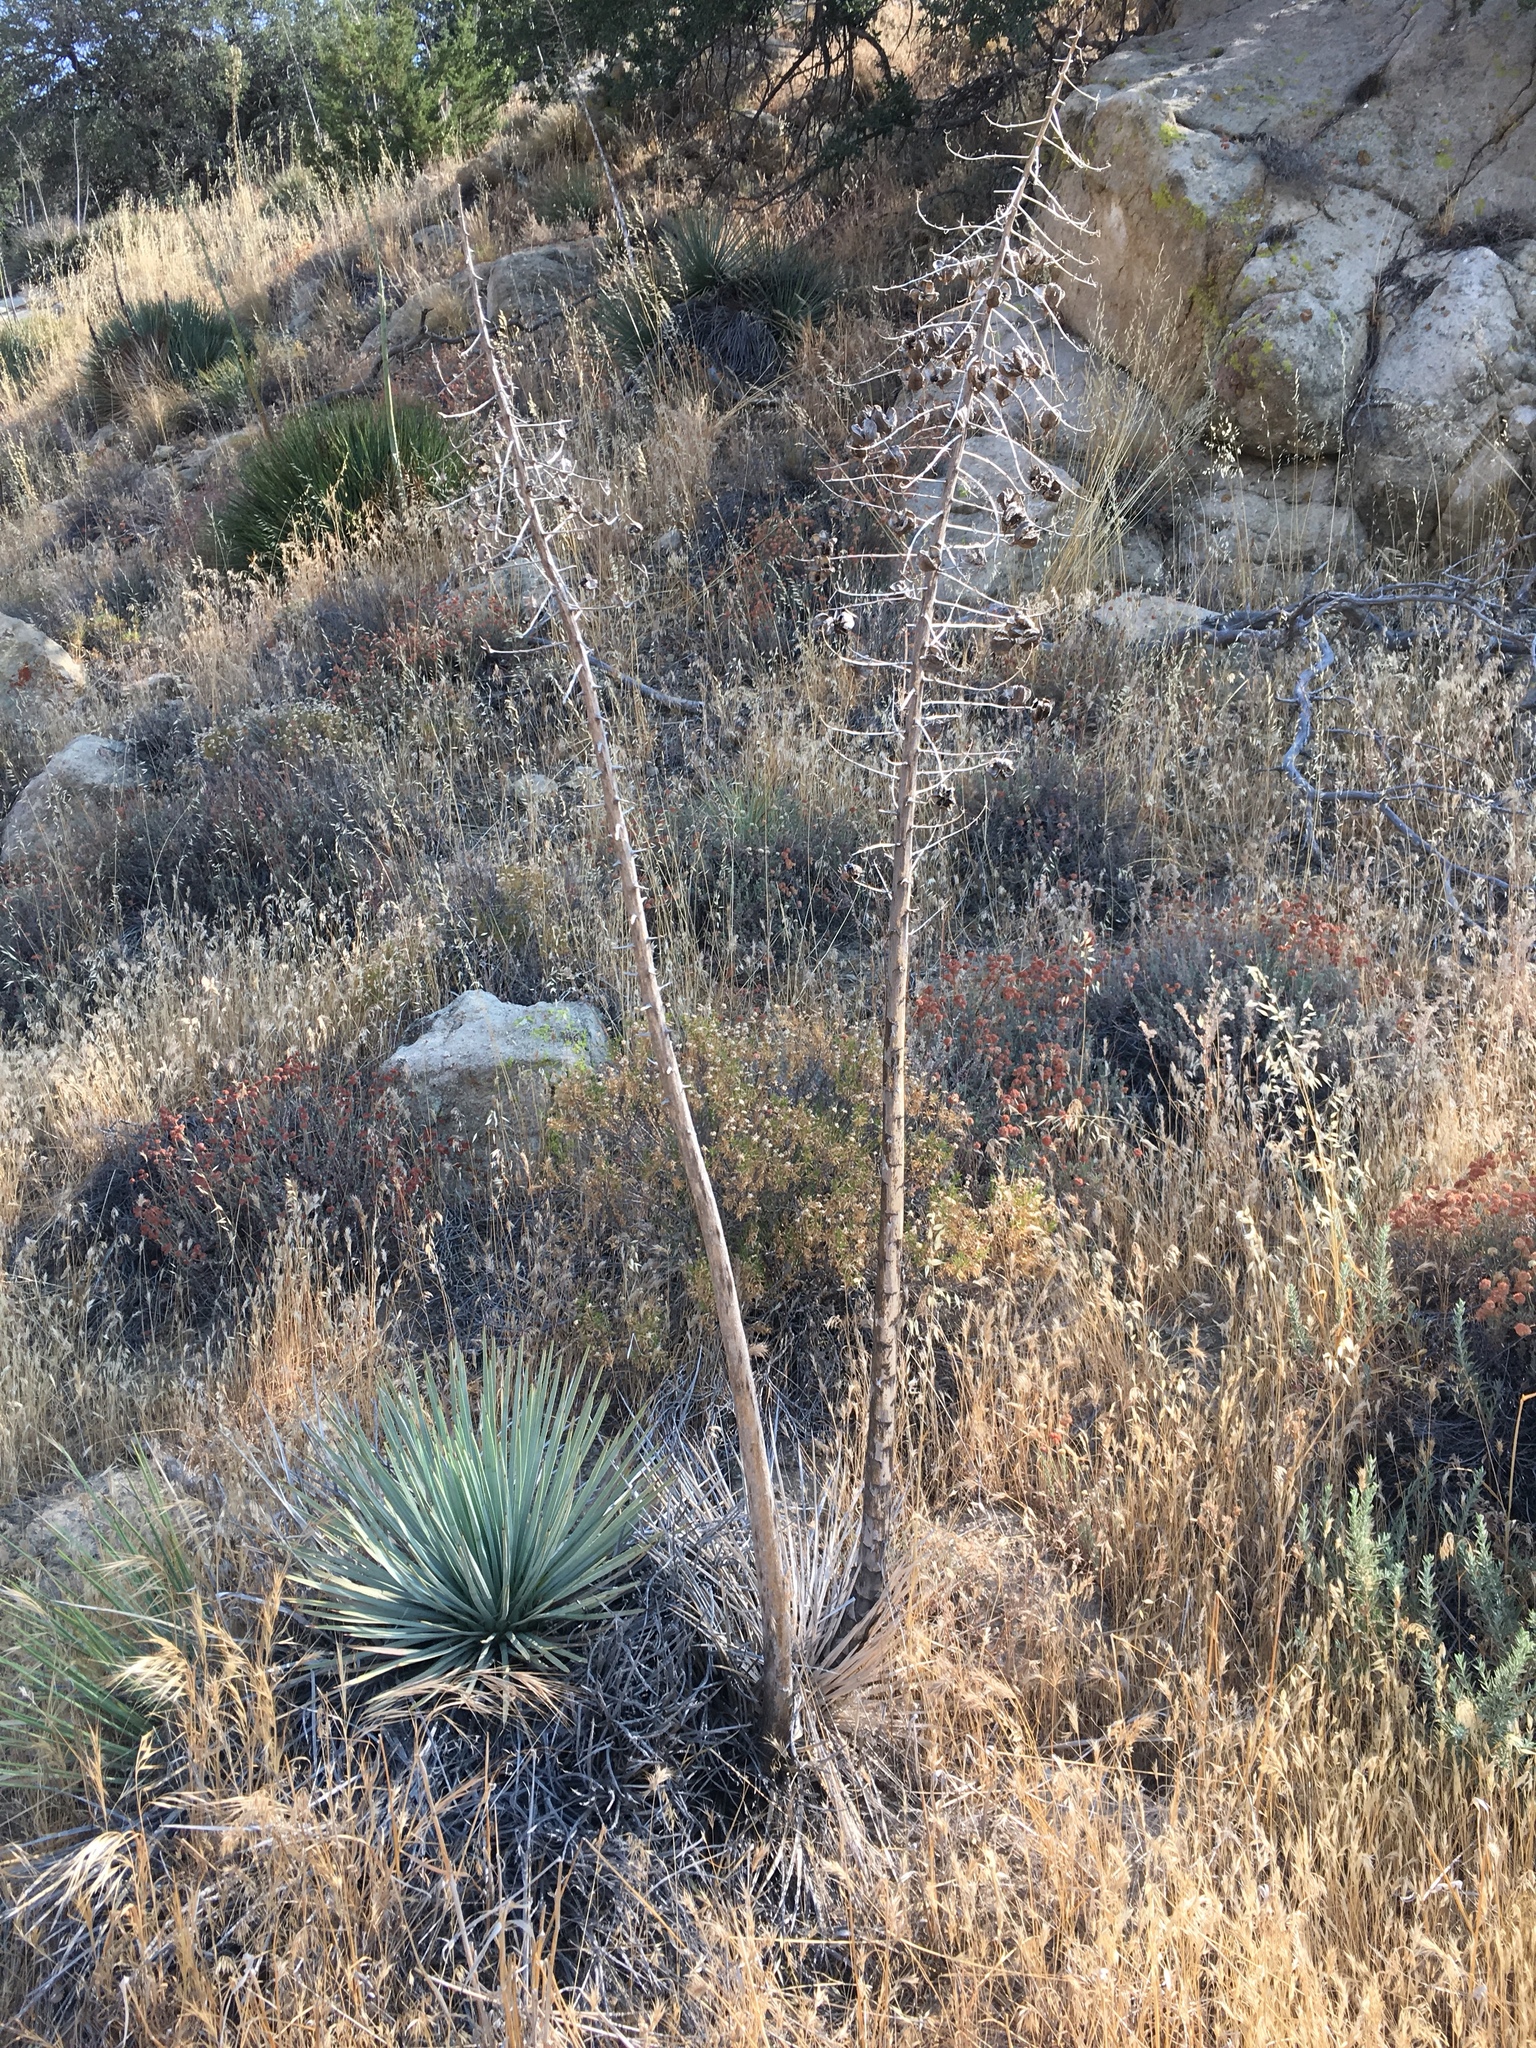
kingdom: Plantae
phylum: Tracheophyta
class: Liliopsida
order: Asparagales
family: Asparagaceae
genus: Hesperoyucca
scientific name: Hesperoyucca whipplei
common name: Our lord's-candle
